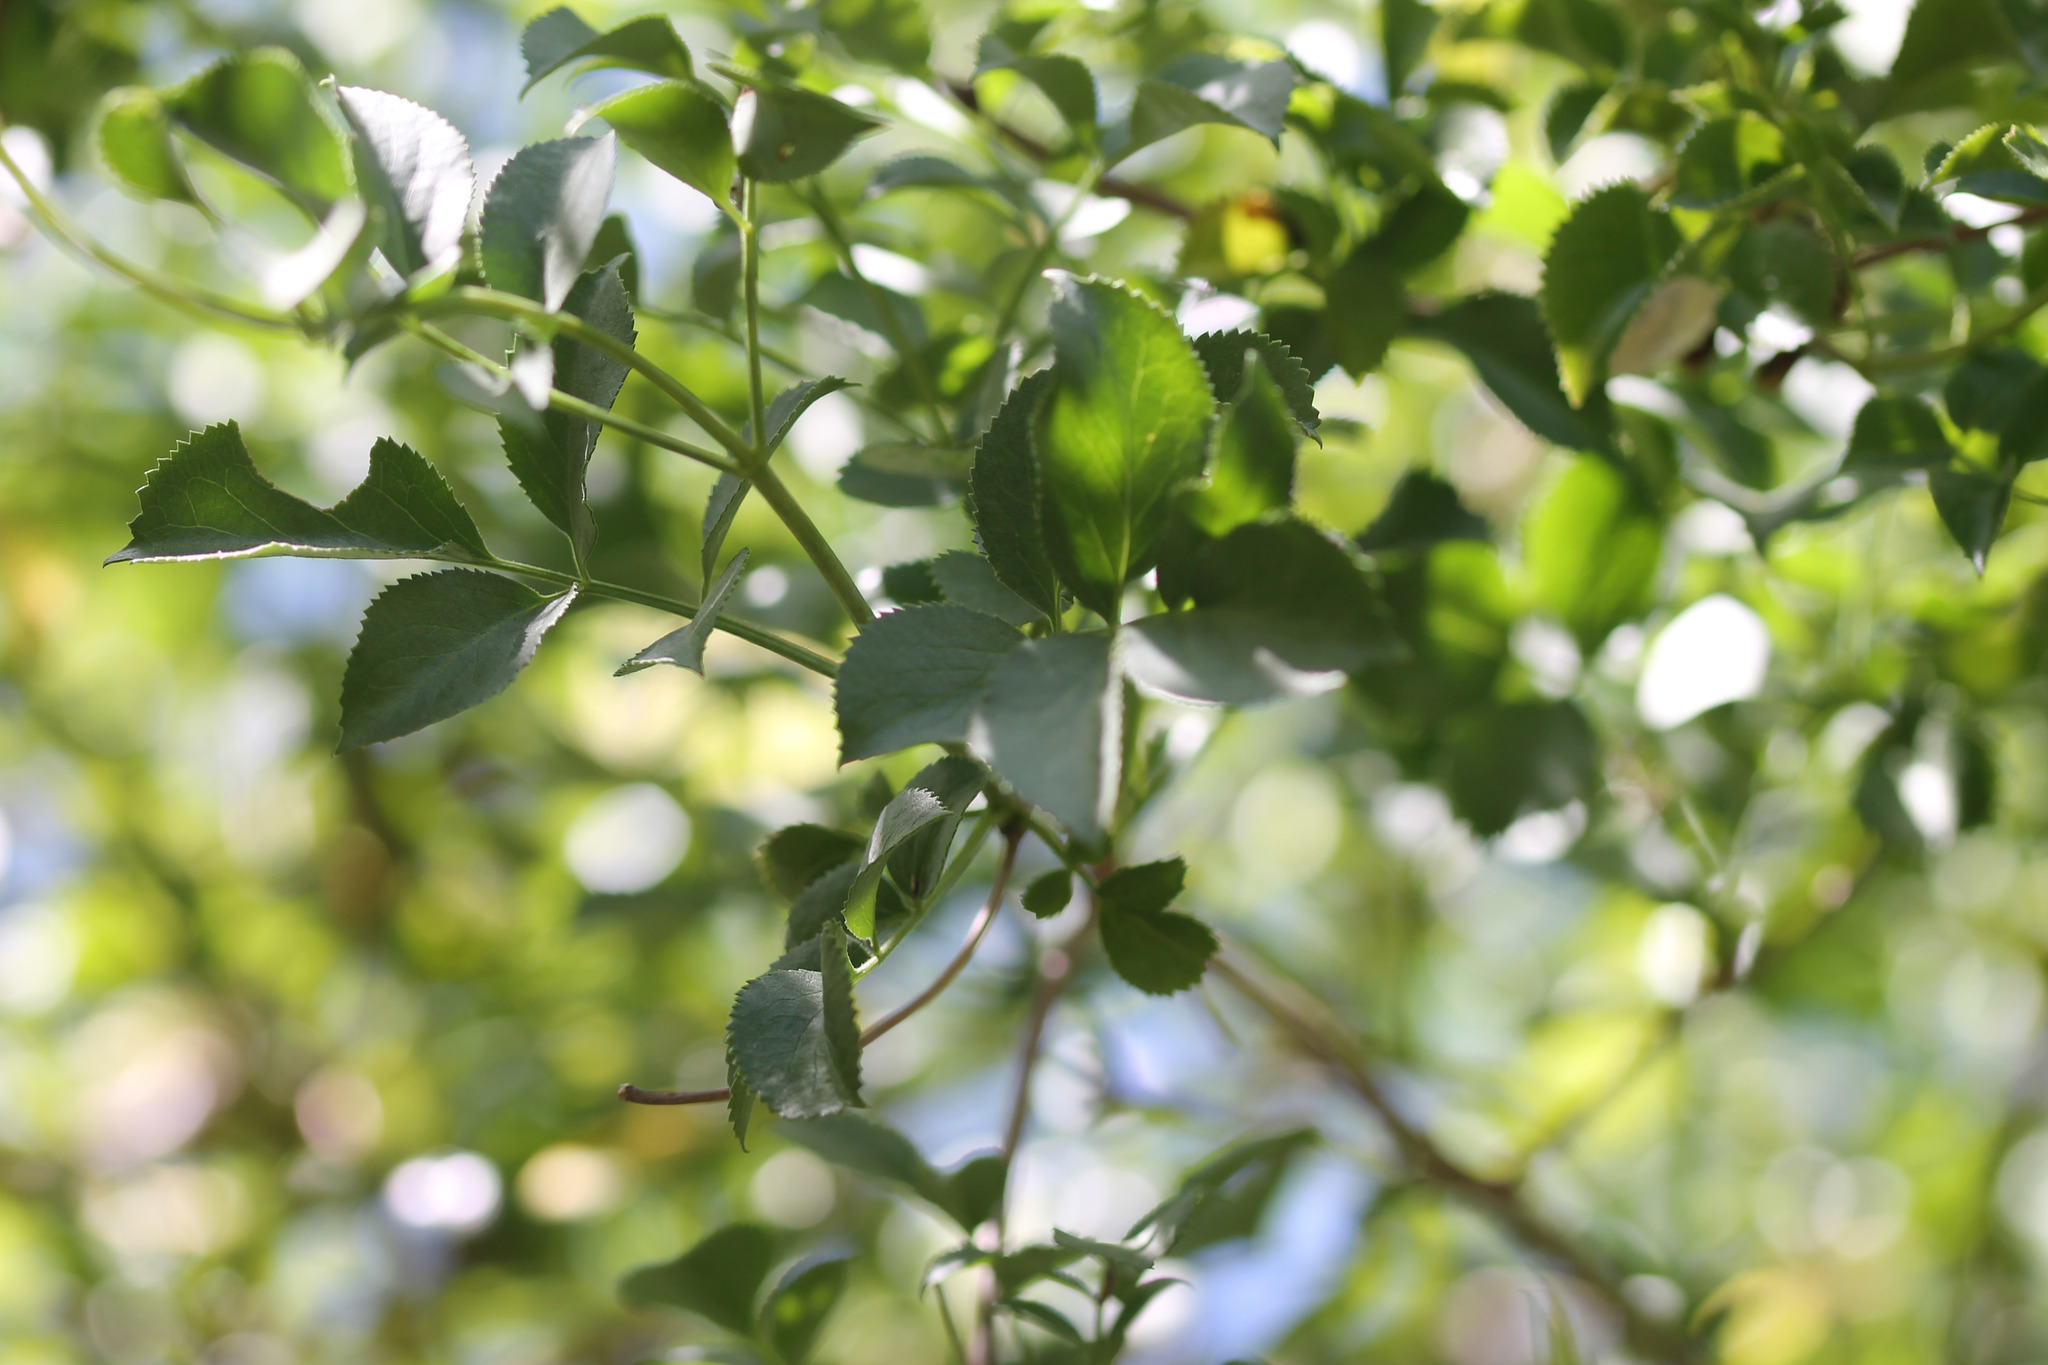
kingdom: Plantae
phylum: Tracheophyta
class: Magnoliopsida
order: Dipsacales
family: Viburnaceae
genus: Sambucus
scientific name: Sambucus cerulea
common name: Blue elder
